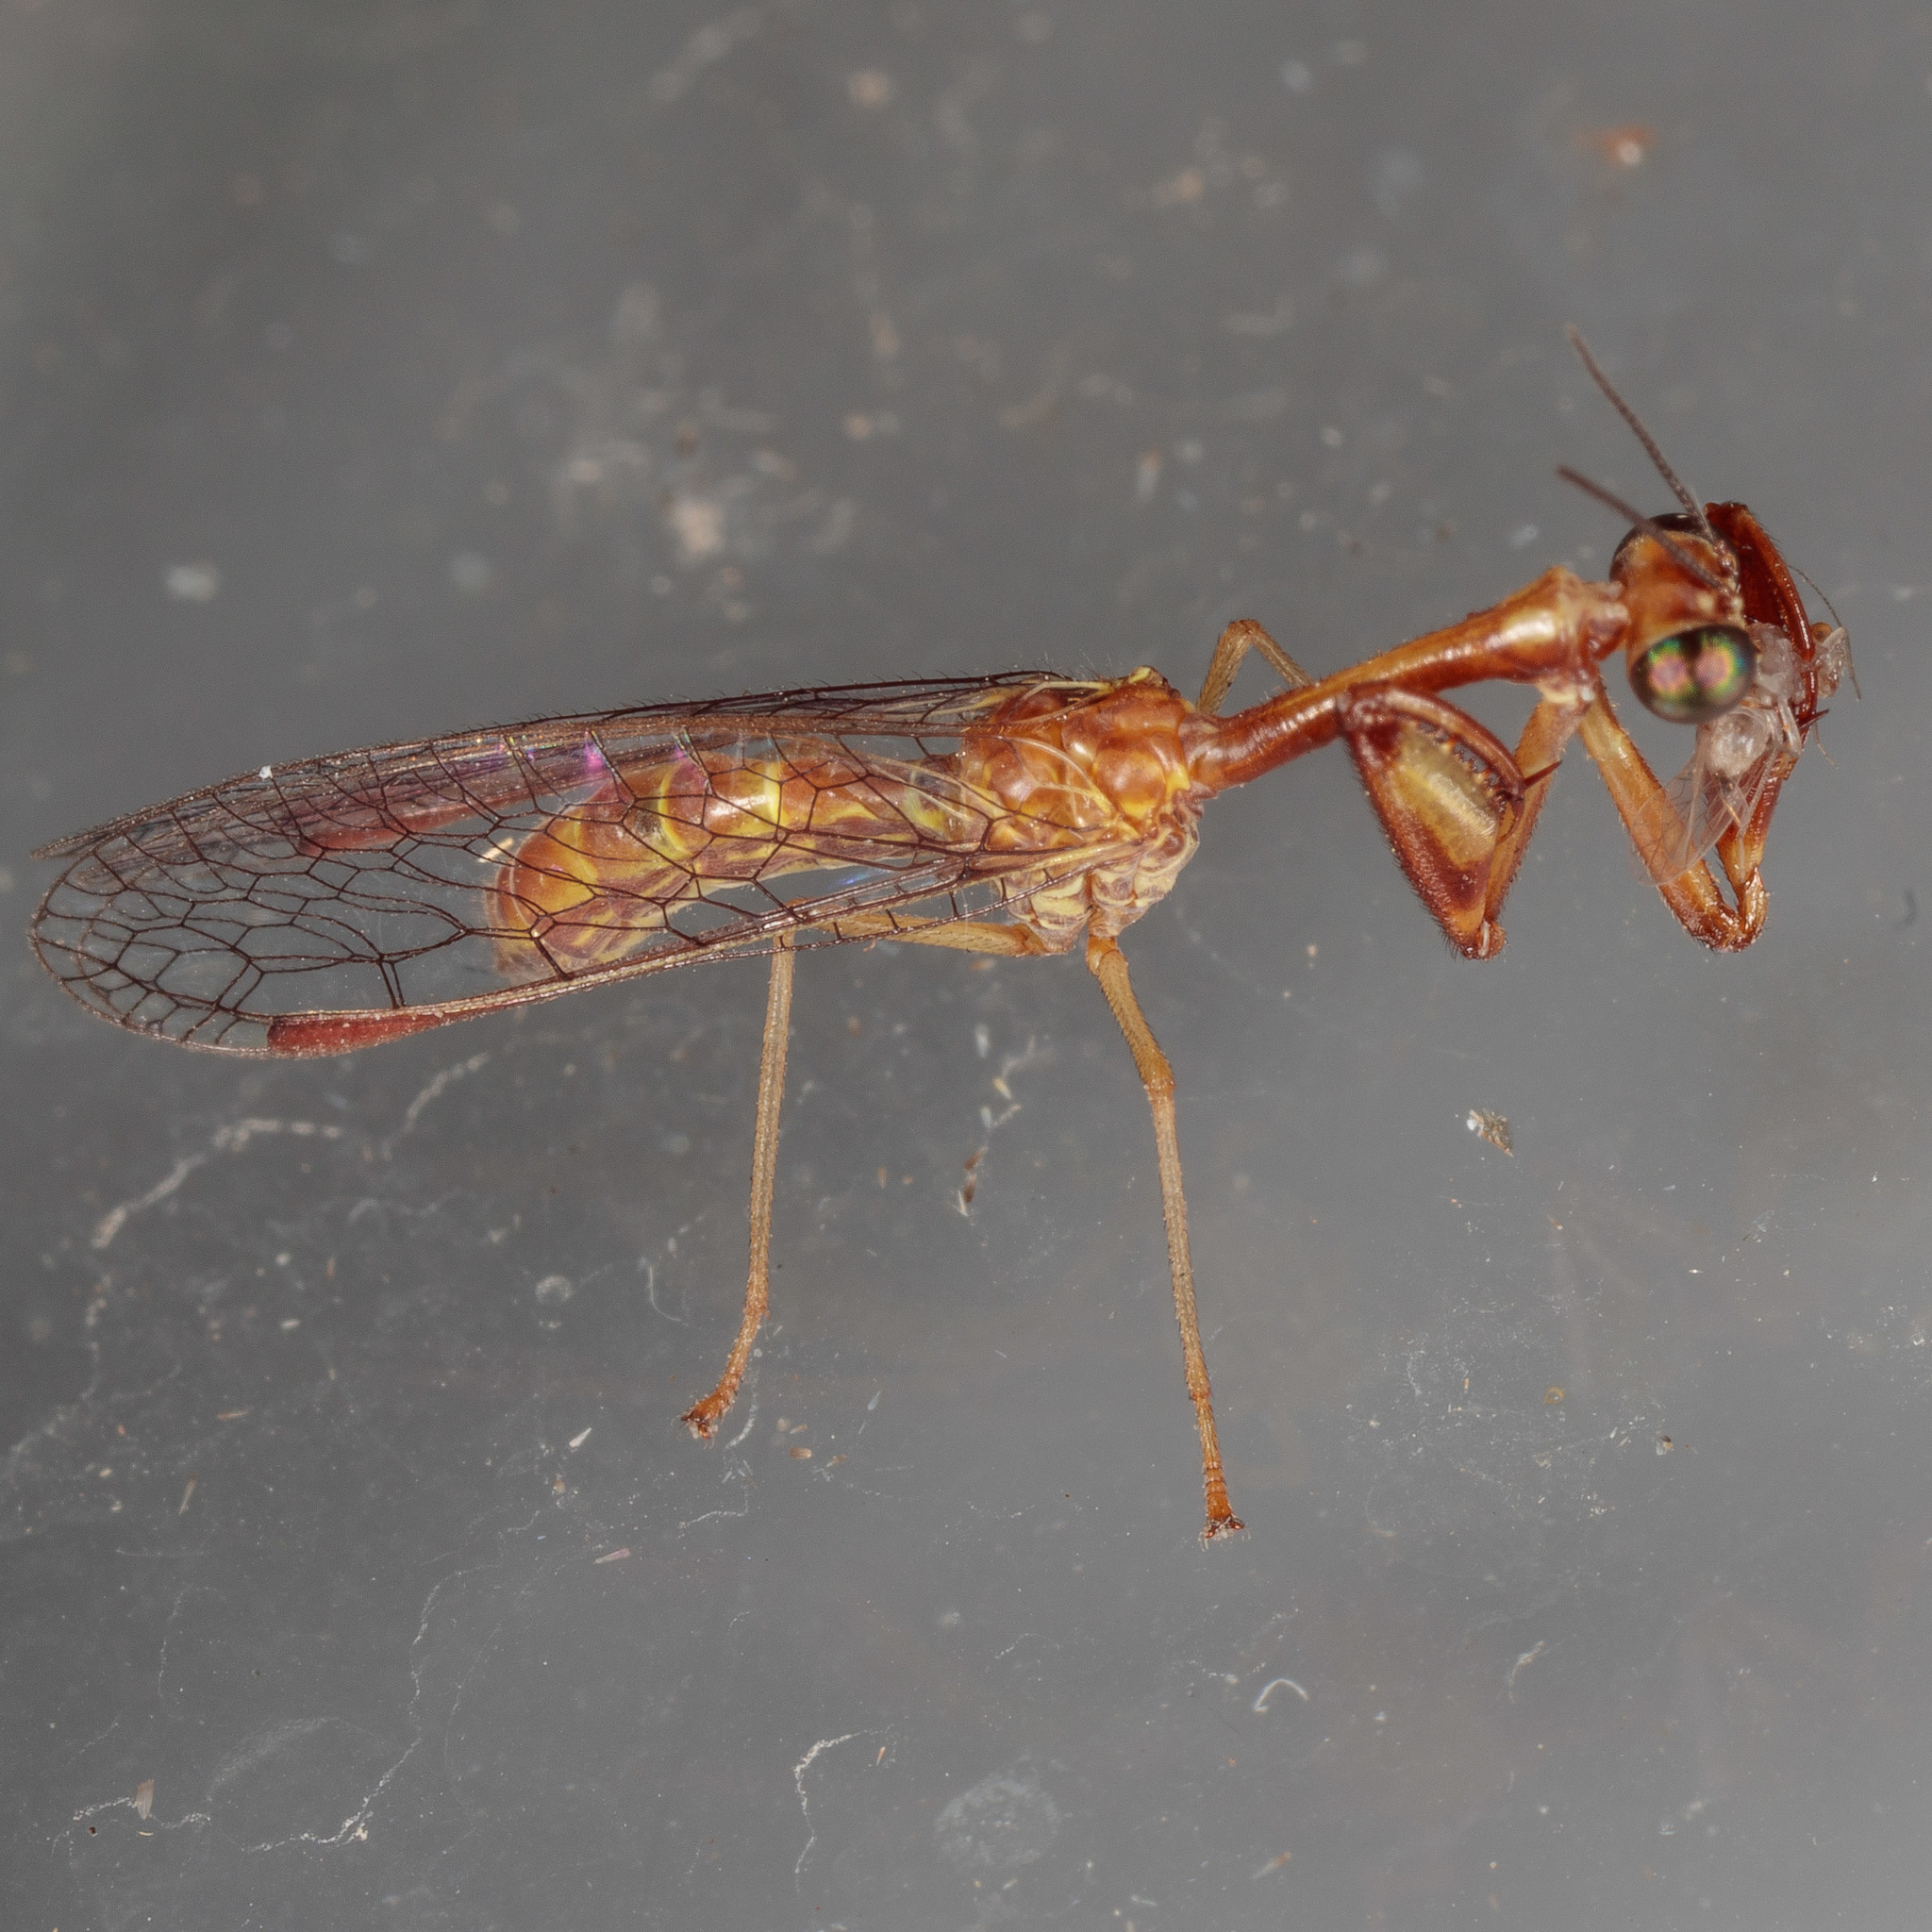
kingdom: Animalia
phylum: Arthropoda
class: Insecta
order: Neuroptera
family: Mantispidae
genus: Leptomantispa
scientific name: Leptomantispa pulchella
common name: Stevens's mantidfly
